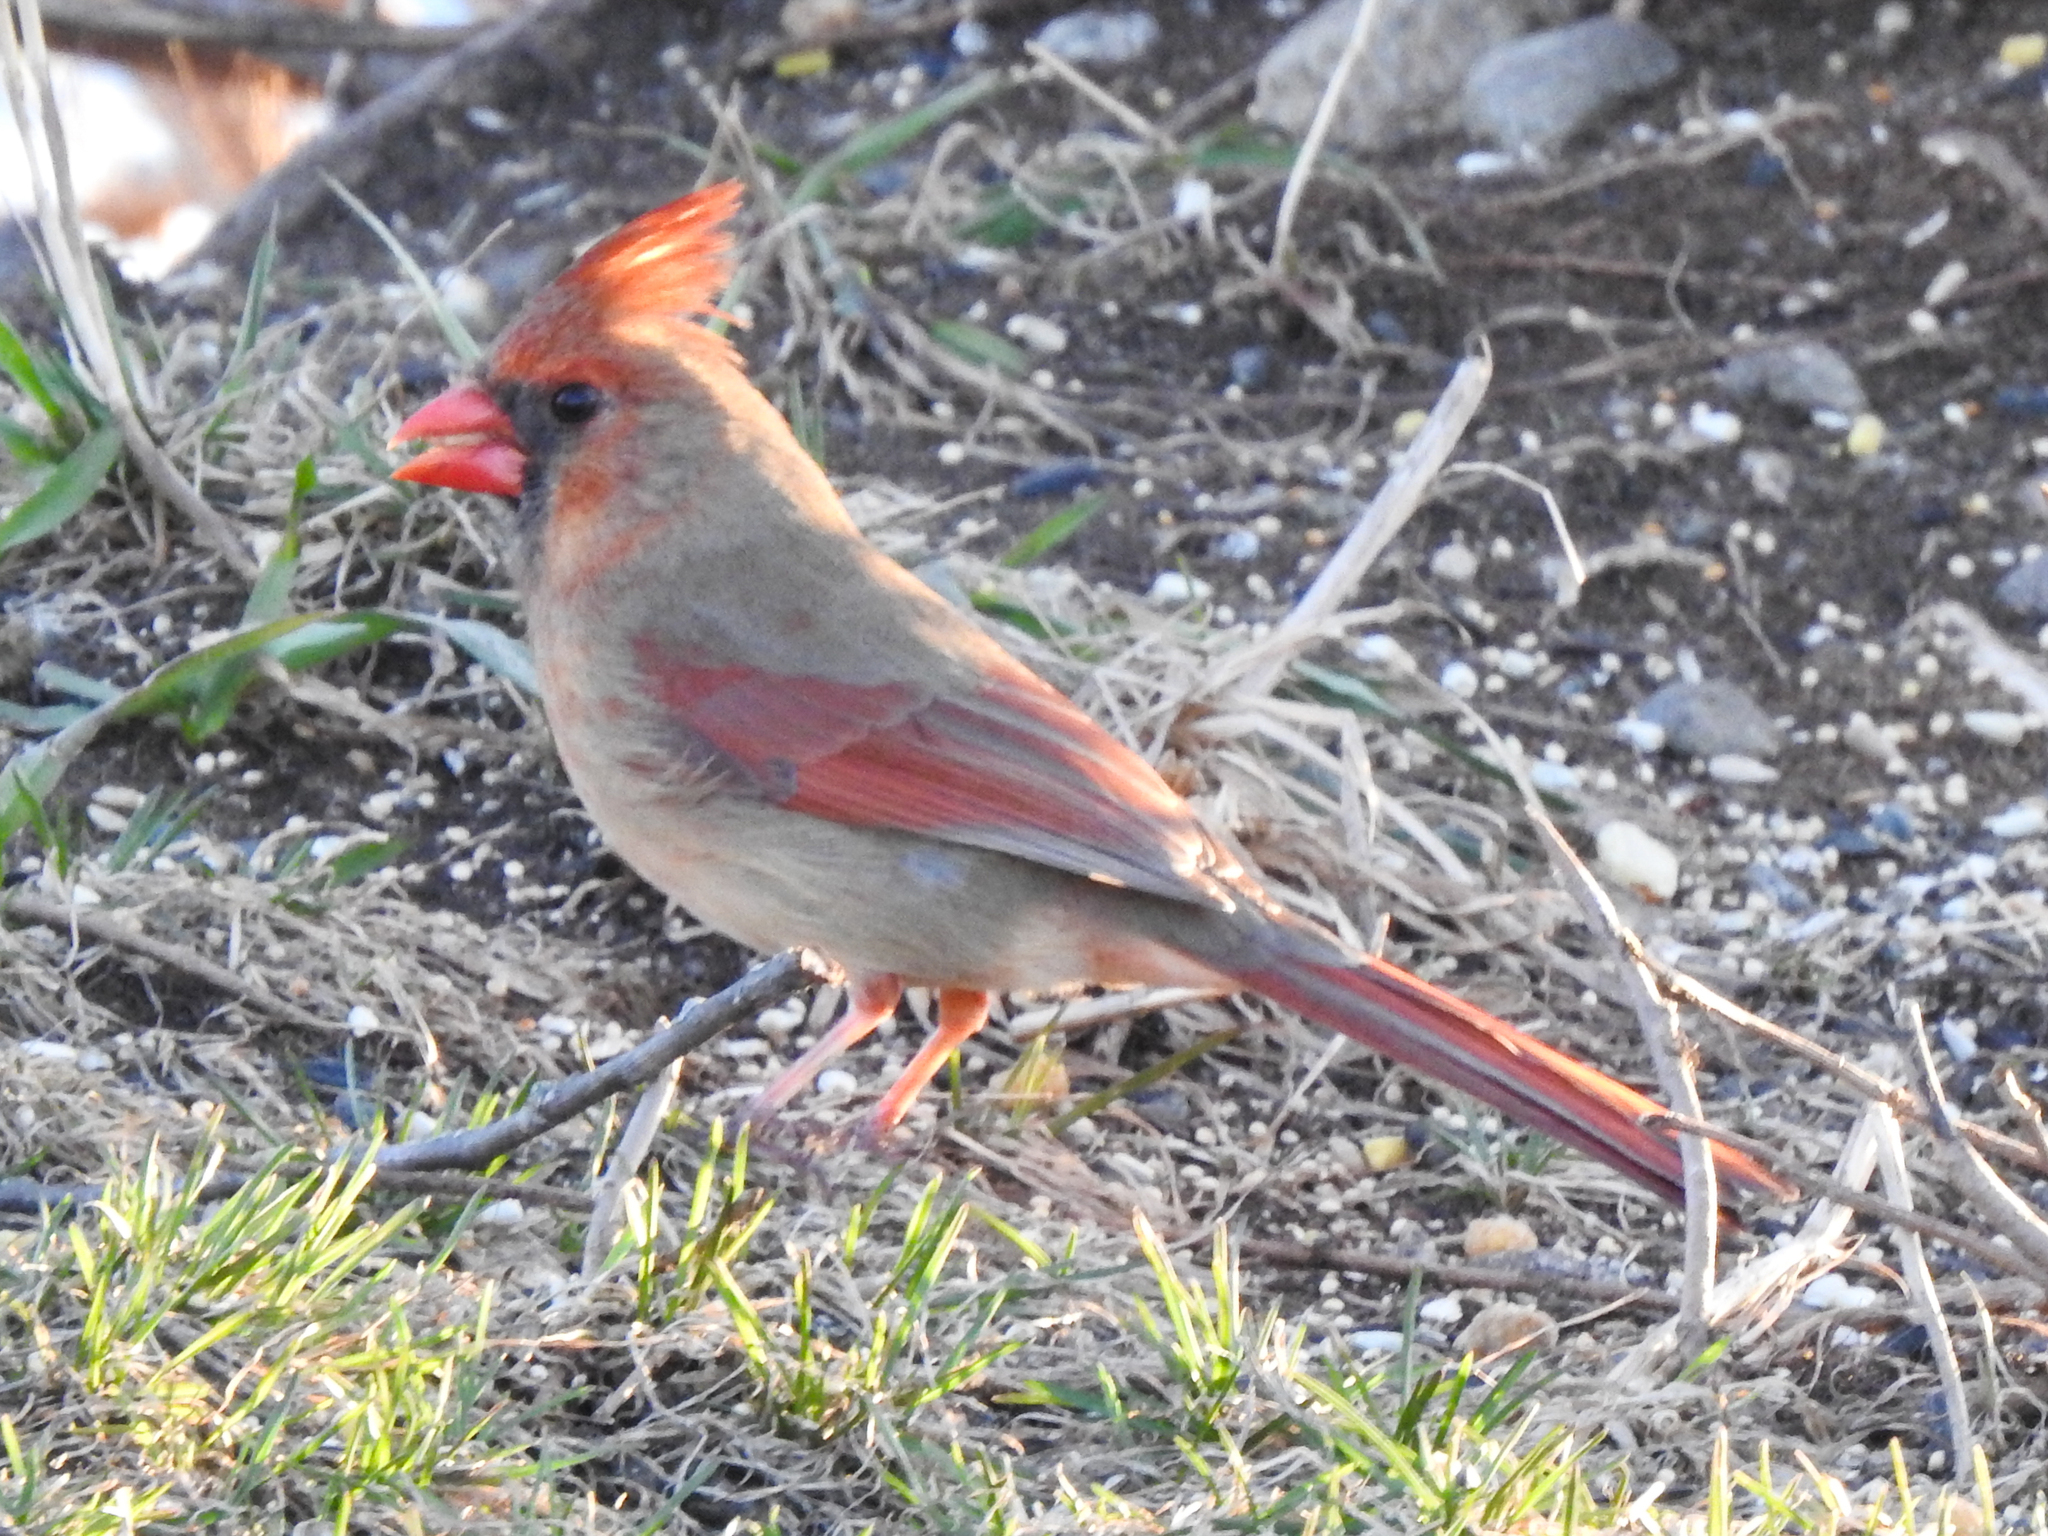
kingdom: Animalia
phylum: Chordata
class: Aves
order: Passeriformes
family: Cardinalidae
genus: Cardinalis
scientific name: Cardinalis cardinalis
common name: Northern cardinal
